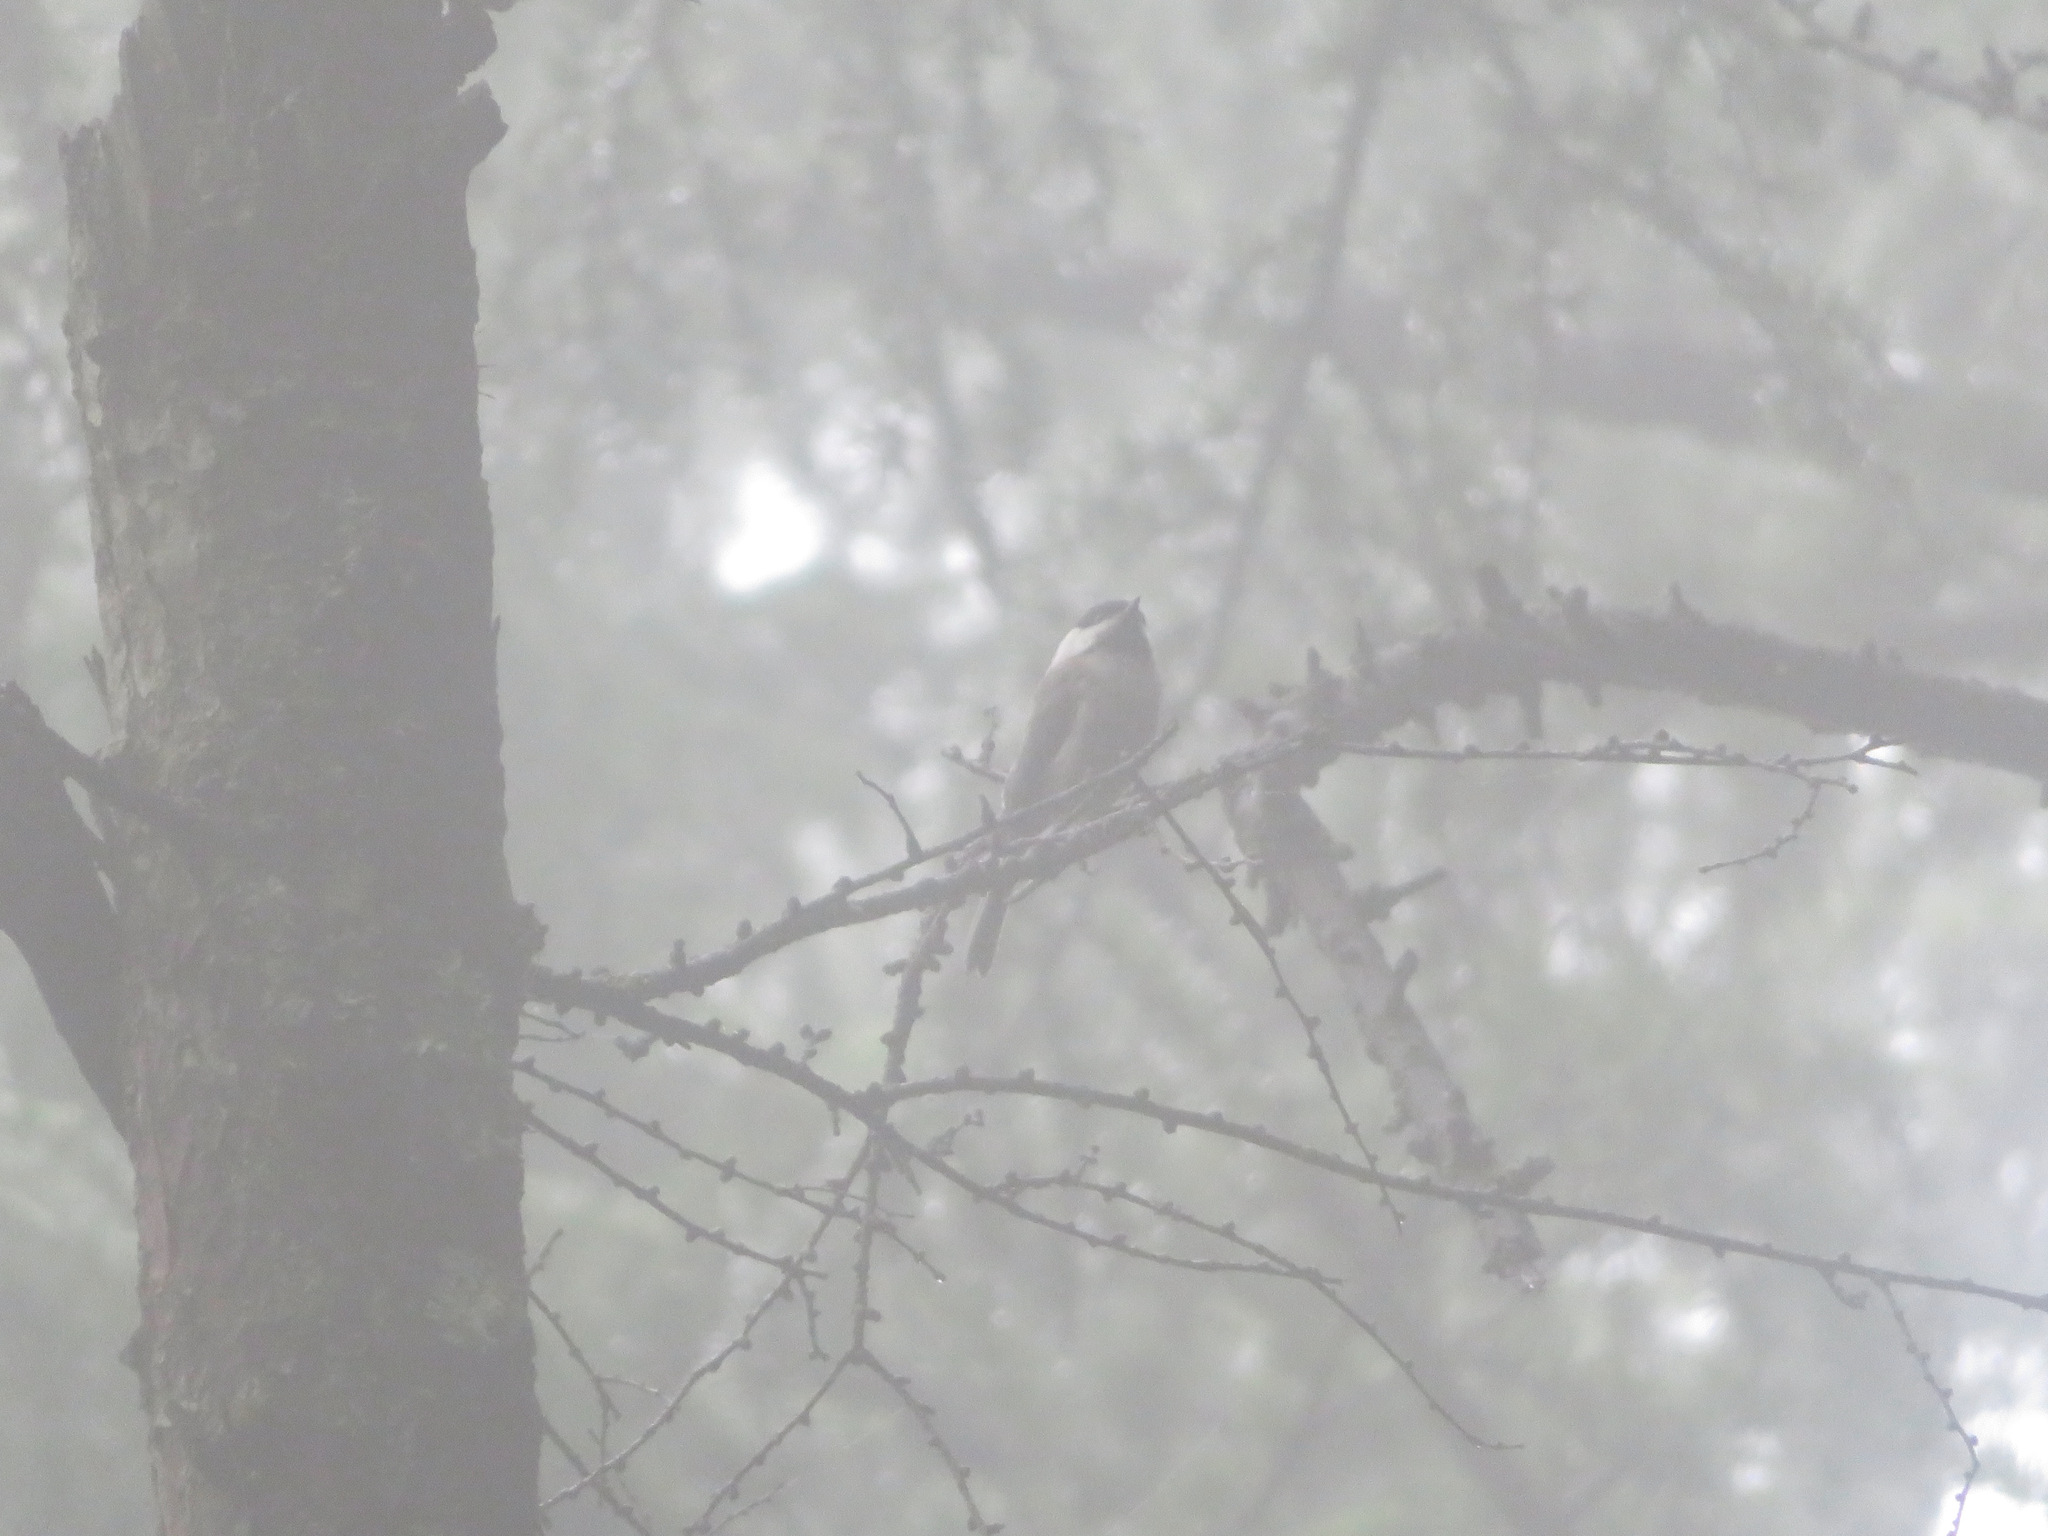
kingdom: Animalia
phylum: Chordata
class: Aves
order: Passeriformes
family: Paridae
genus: Poecile
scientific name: Poecile montanus
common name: Willow tit
